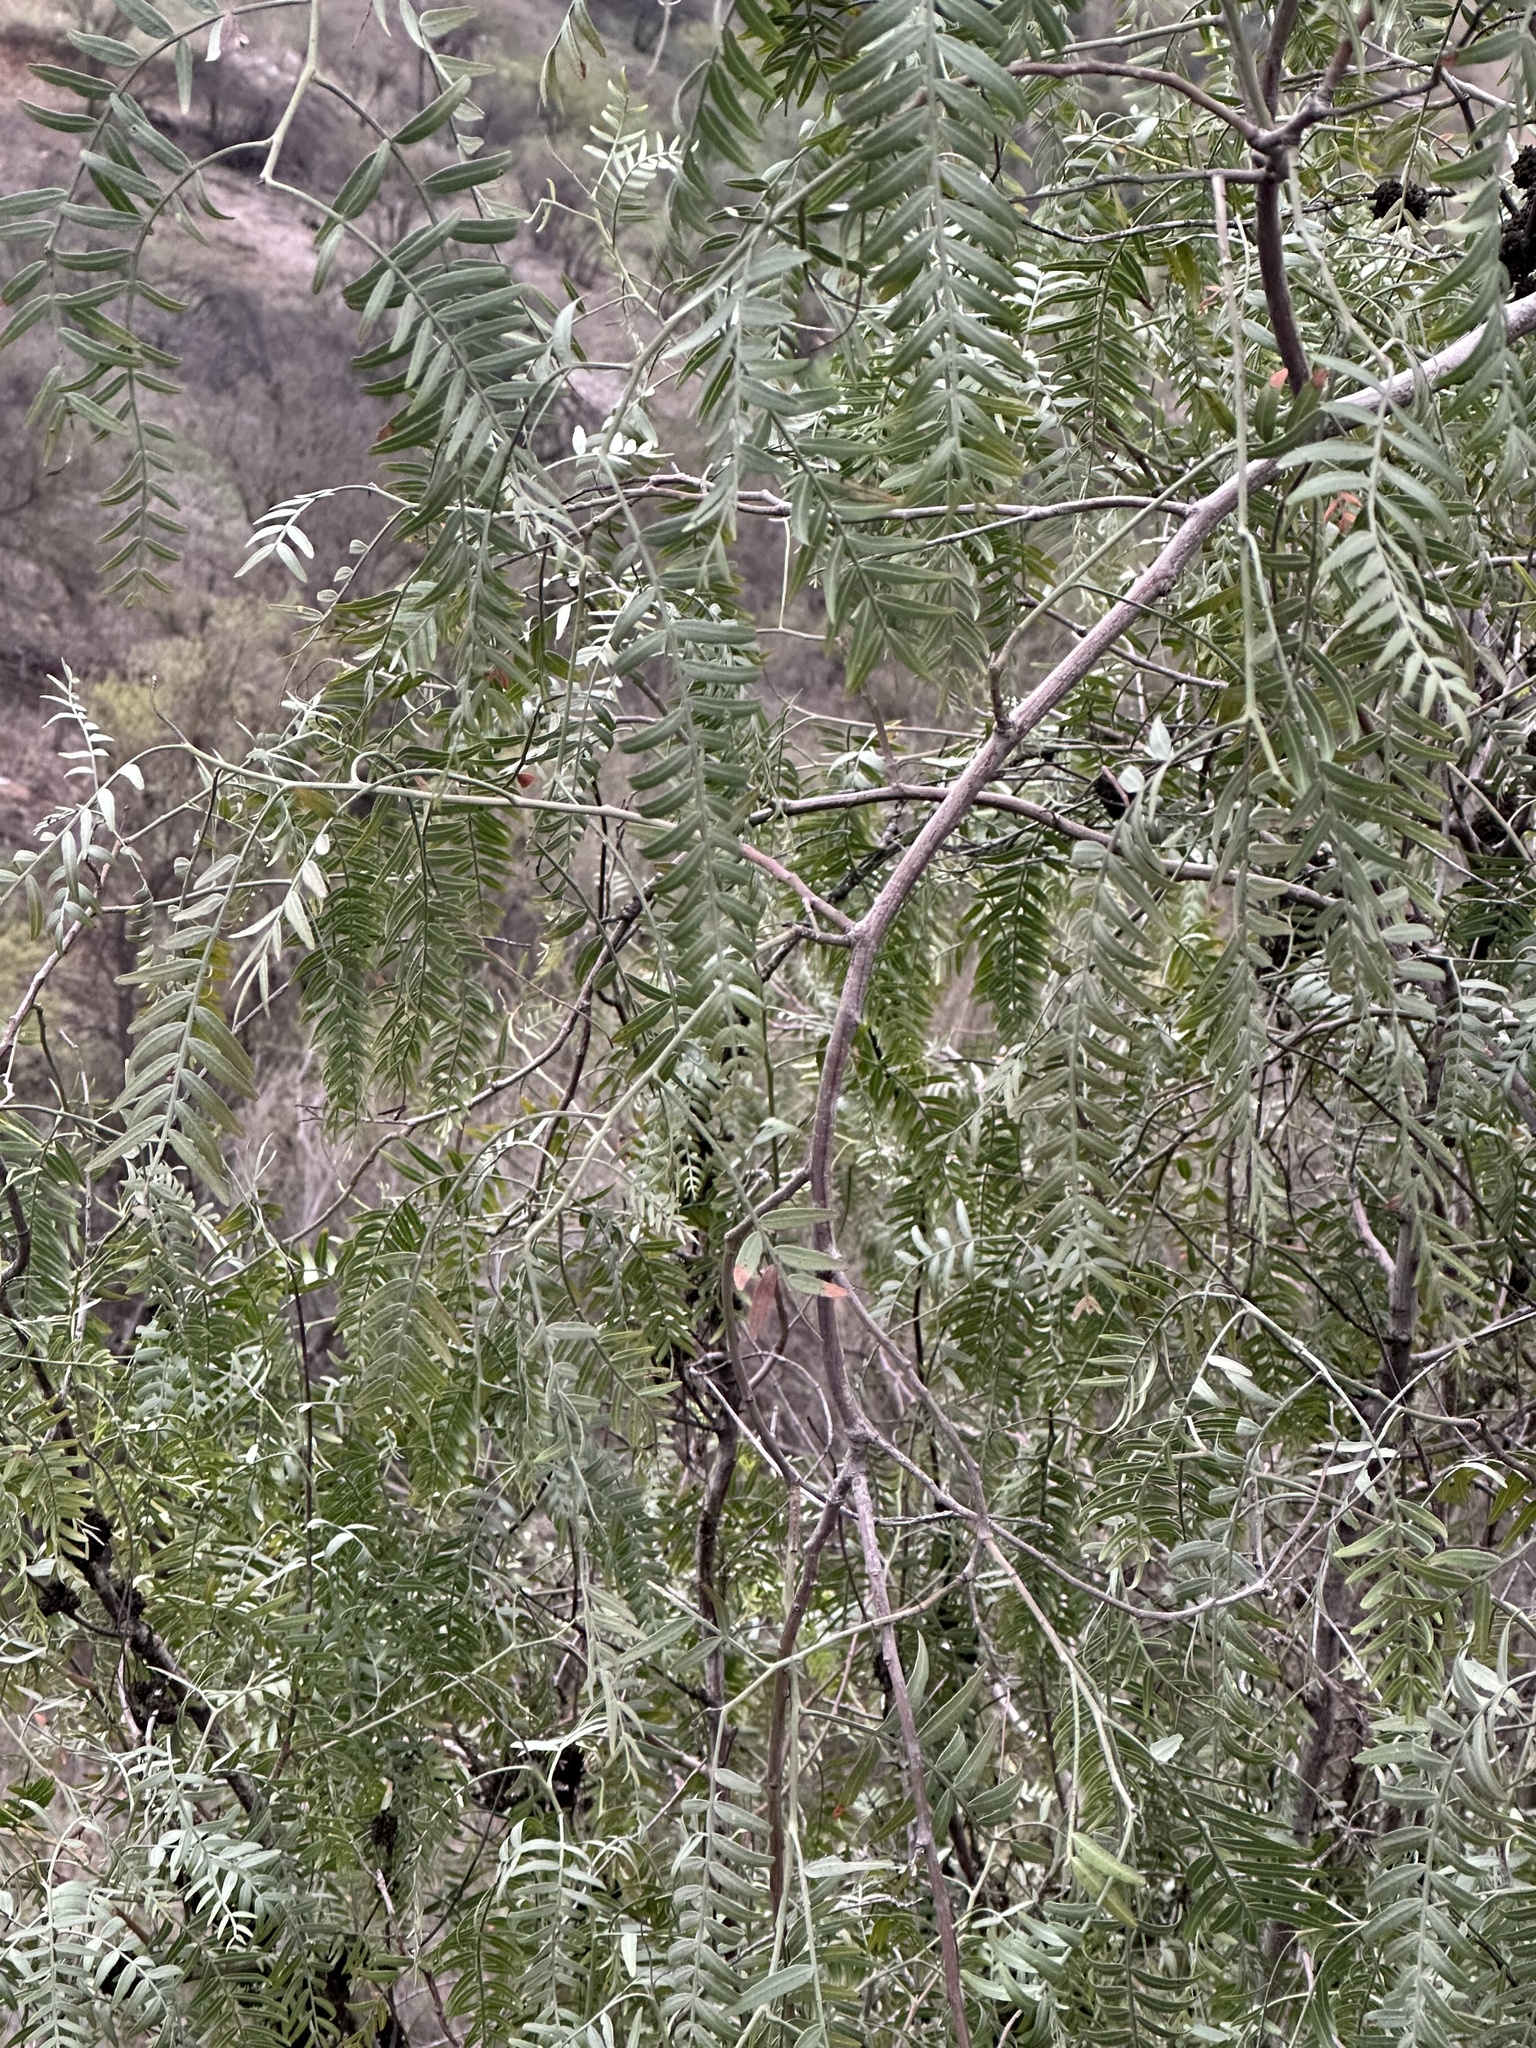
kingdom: Plantae
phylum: Tracheophyta
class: Magnoliopsida
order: Sapindales
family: Anacardiaceae
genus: Schinus
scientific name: Schinus molle
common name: Peruvian peppertree
